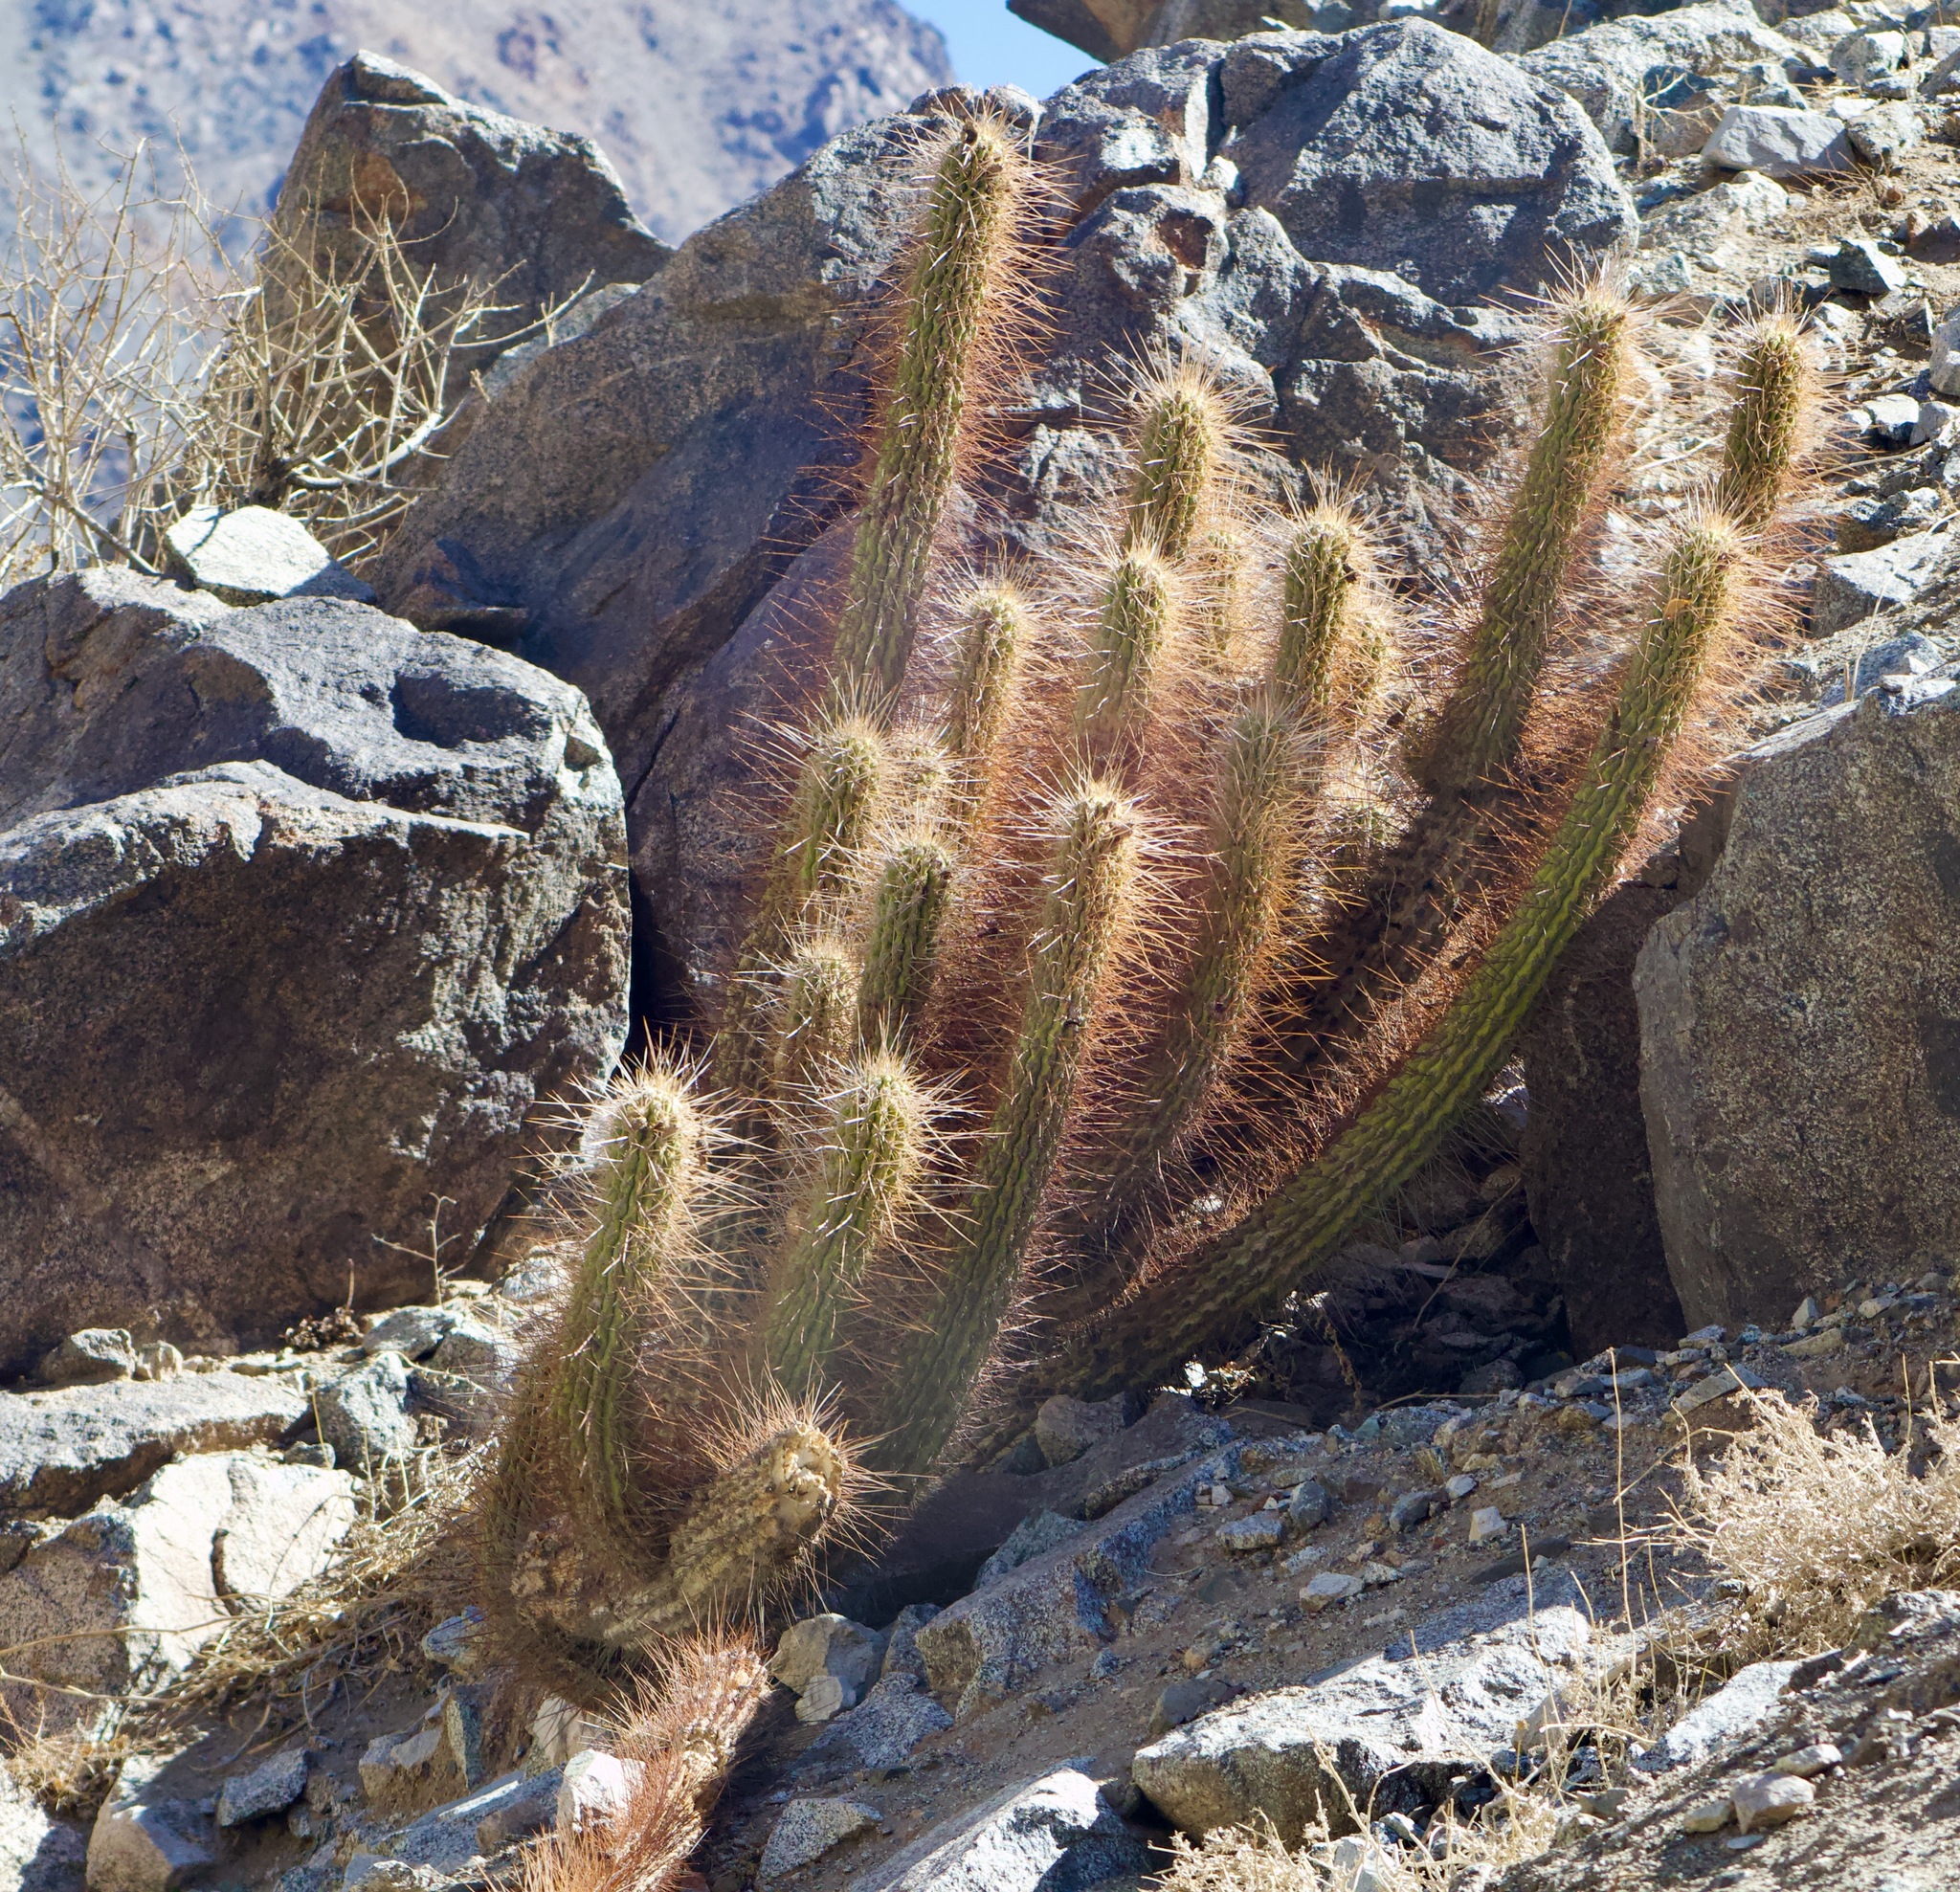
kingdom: Plantae
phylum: Tracheophyta
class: Magnoliopsida
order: Caryophyllales
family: Cactaceae
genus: Leucostele
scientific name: Leucostele chiloensis
